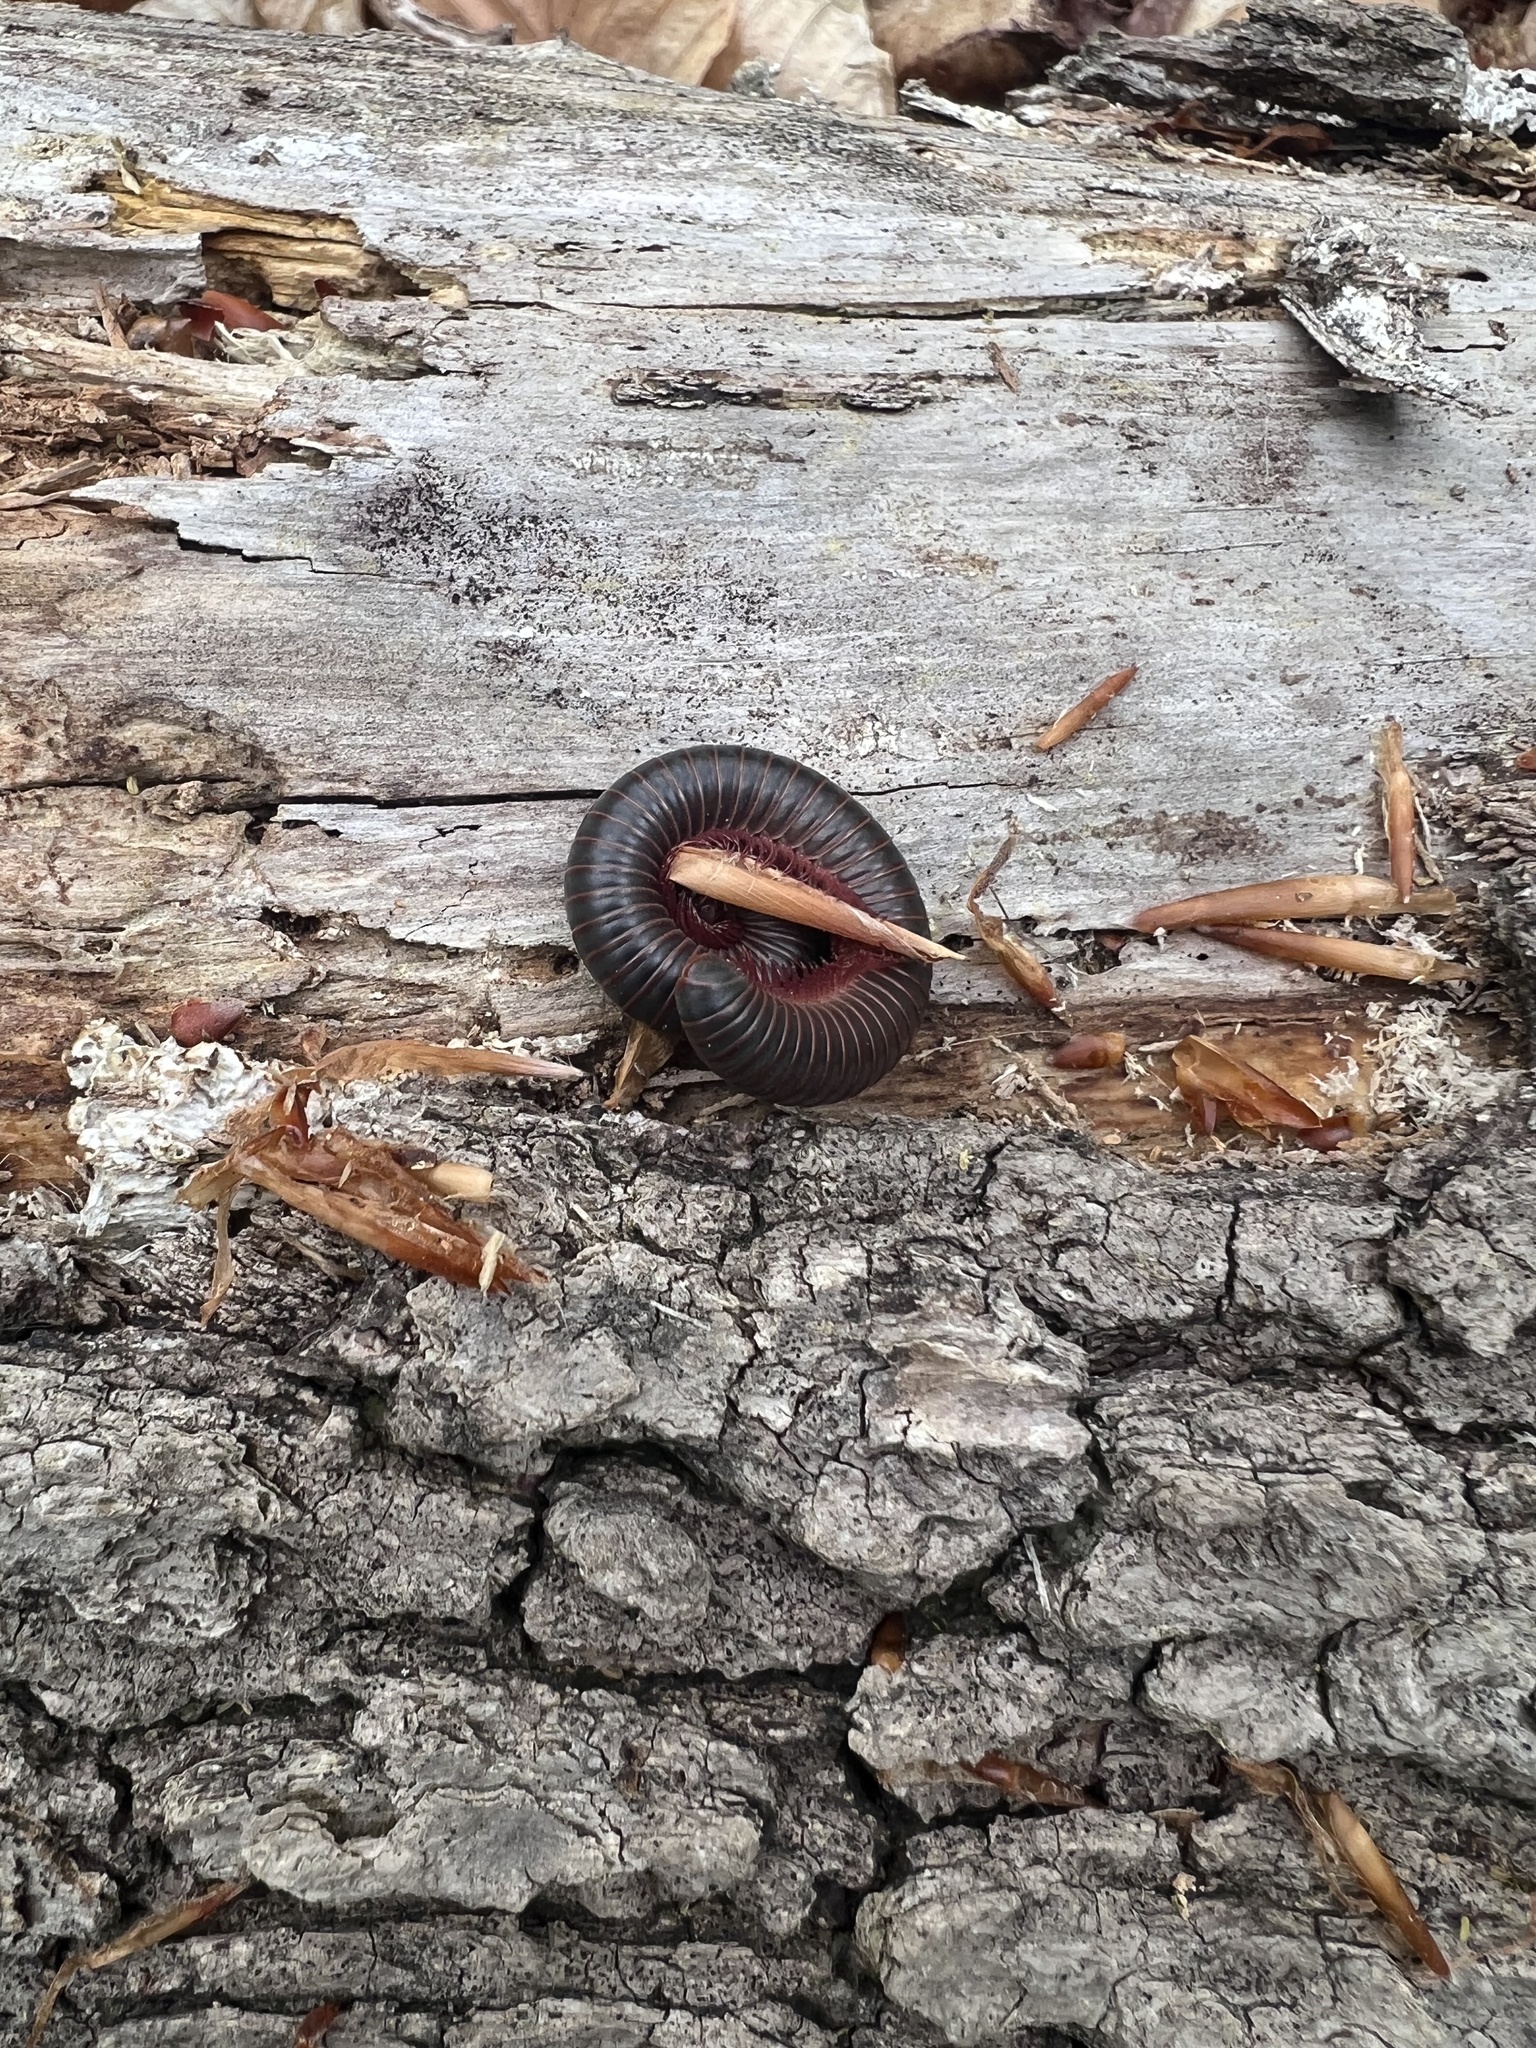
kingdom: Animalia
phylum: Arthropoda
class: Diplopoda
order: Spirobolida
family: Spirobolidae
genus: Narceus
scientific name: Narceus americanus
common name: American giant millipede
